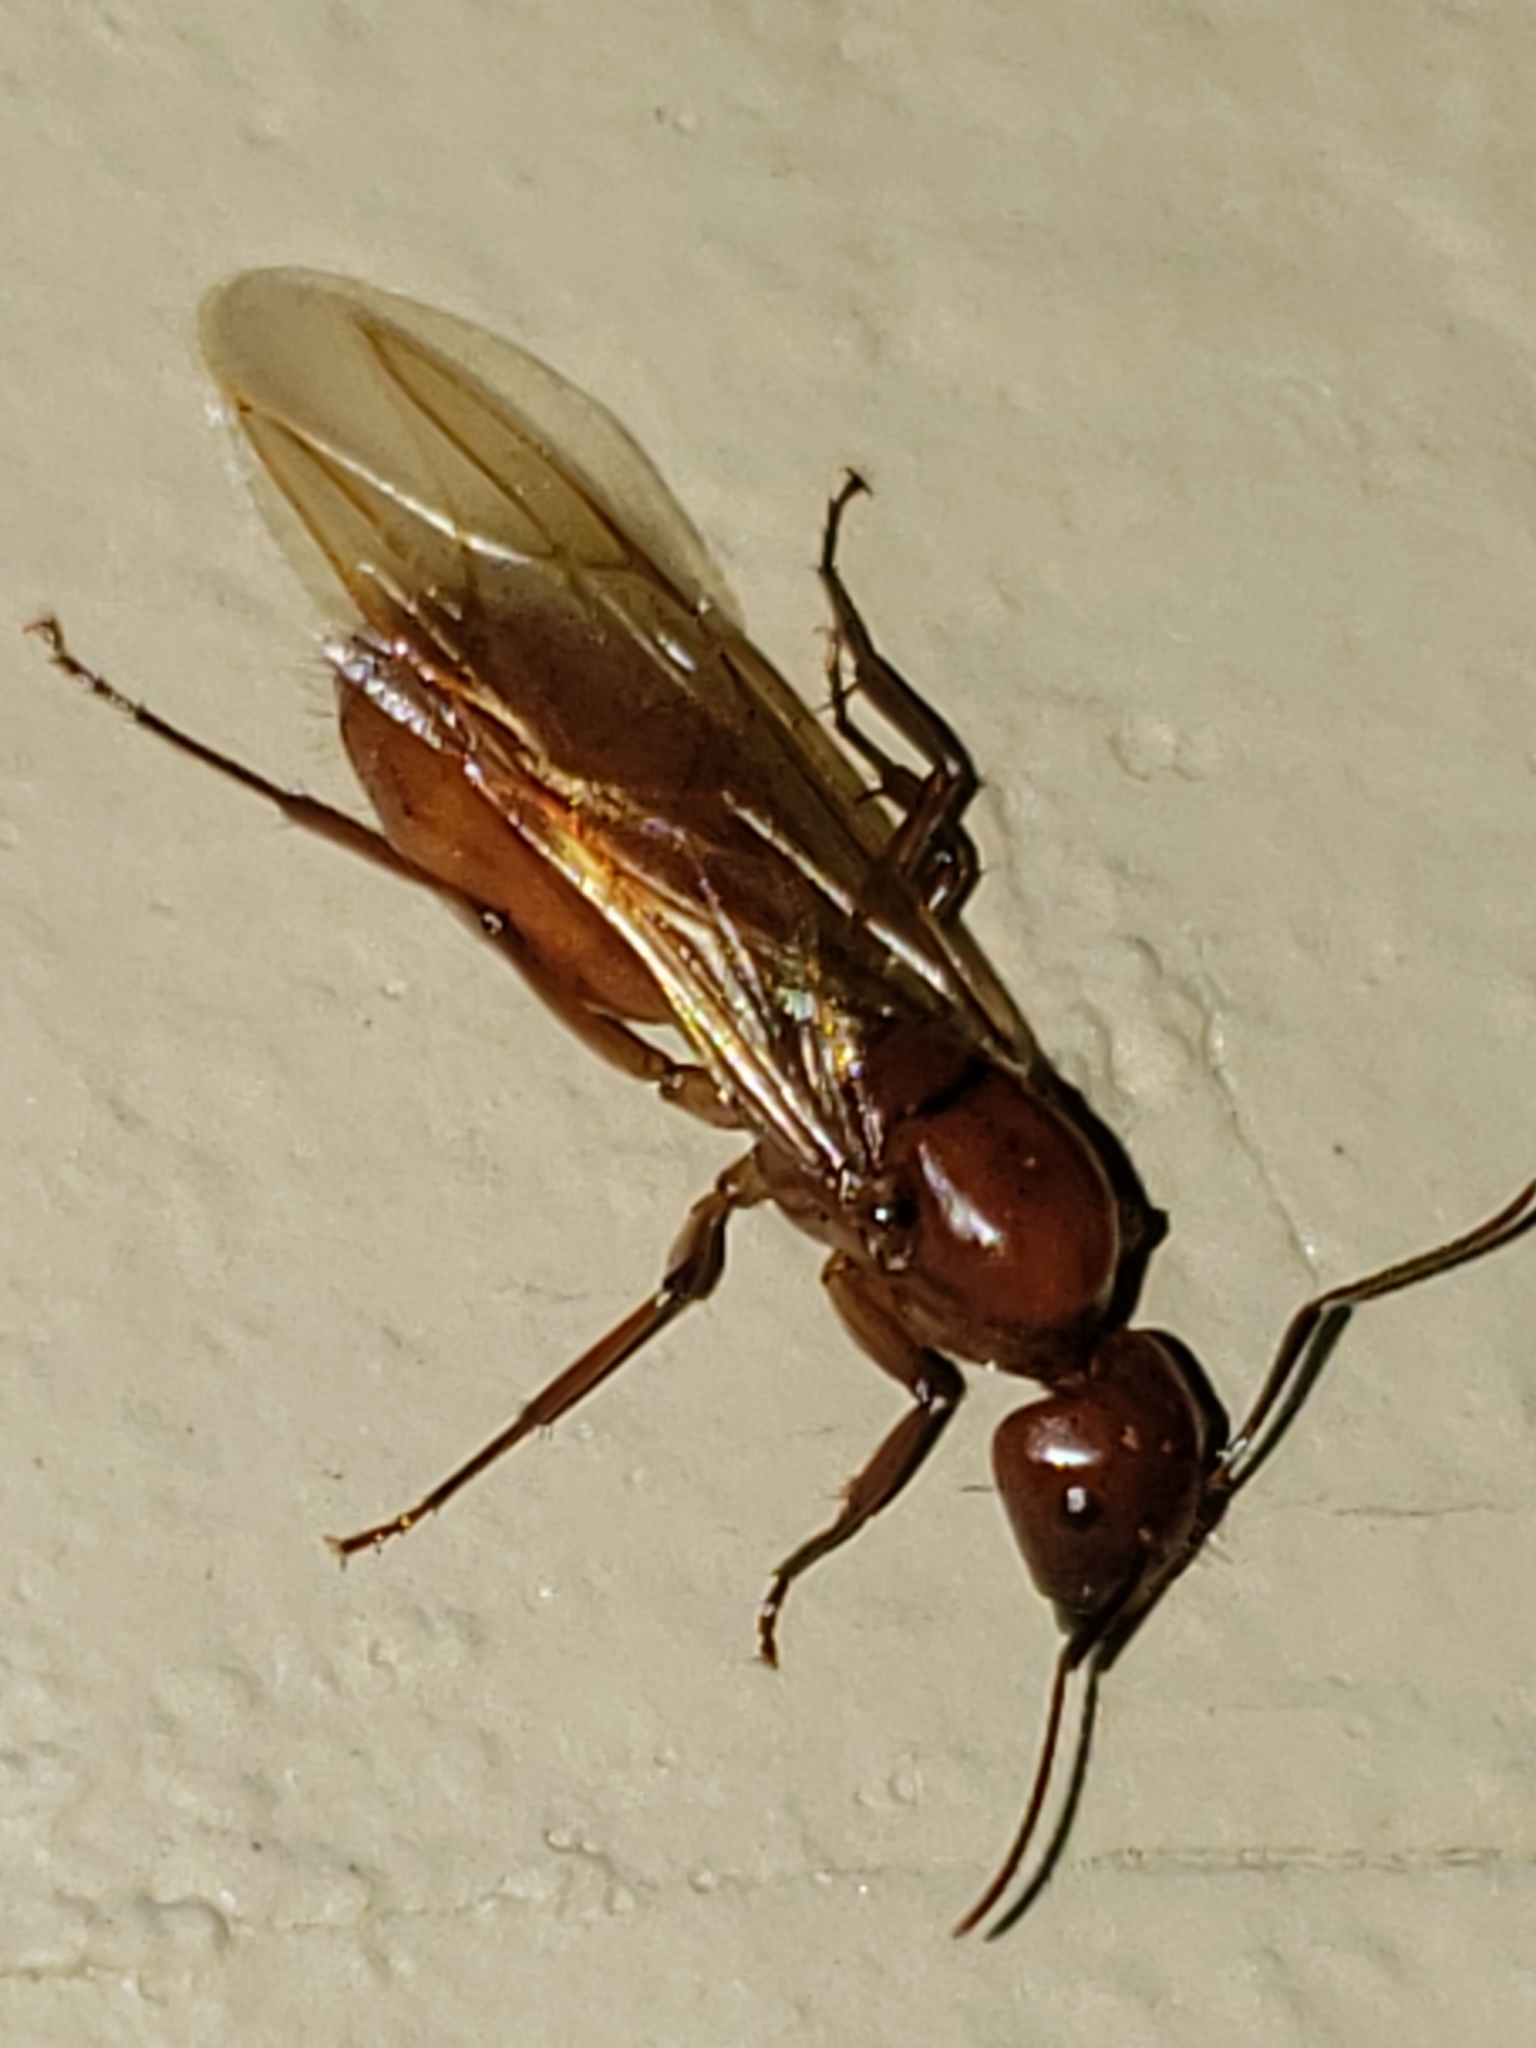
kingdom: Animalia
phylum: Arthropoda
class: Insecta
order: Hymenoptera
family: Formicidae
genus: Camponotus
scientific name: Camponotus castaneus
